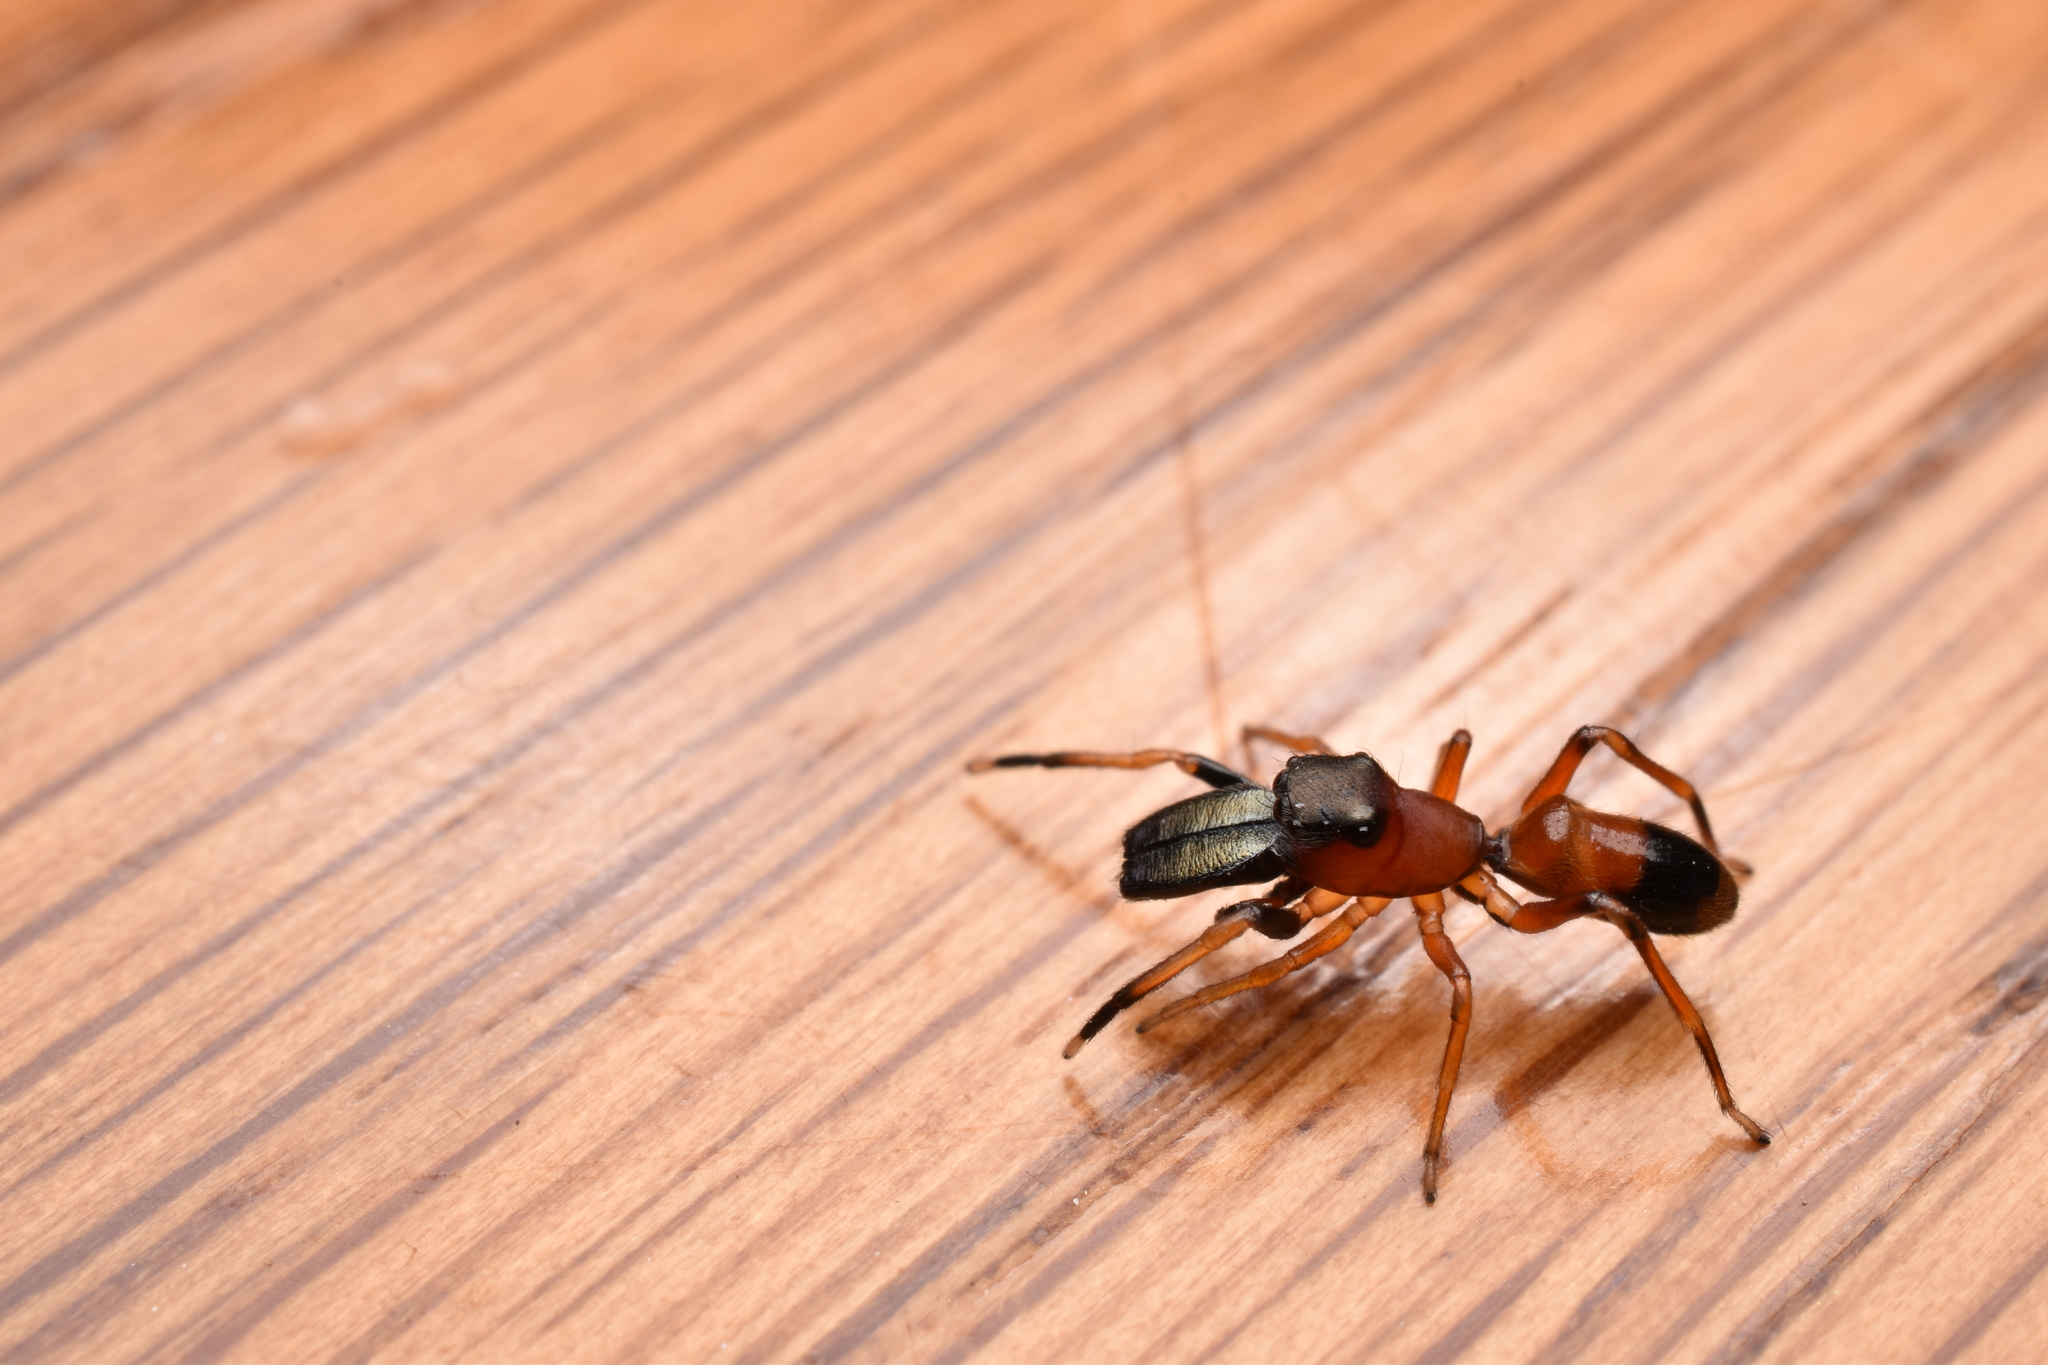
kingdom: Animalia
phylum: Arthropoda
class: Arachnida
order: Araneae
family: Salticidae
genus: Myrmarachne
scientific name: Myrmarachne formicaria
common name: Ant mimic jumping spider
